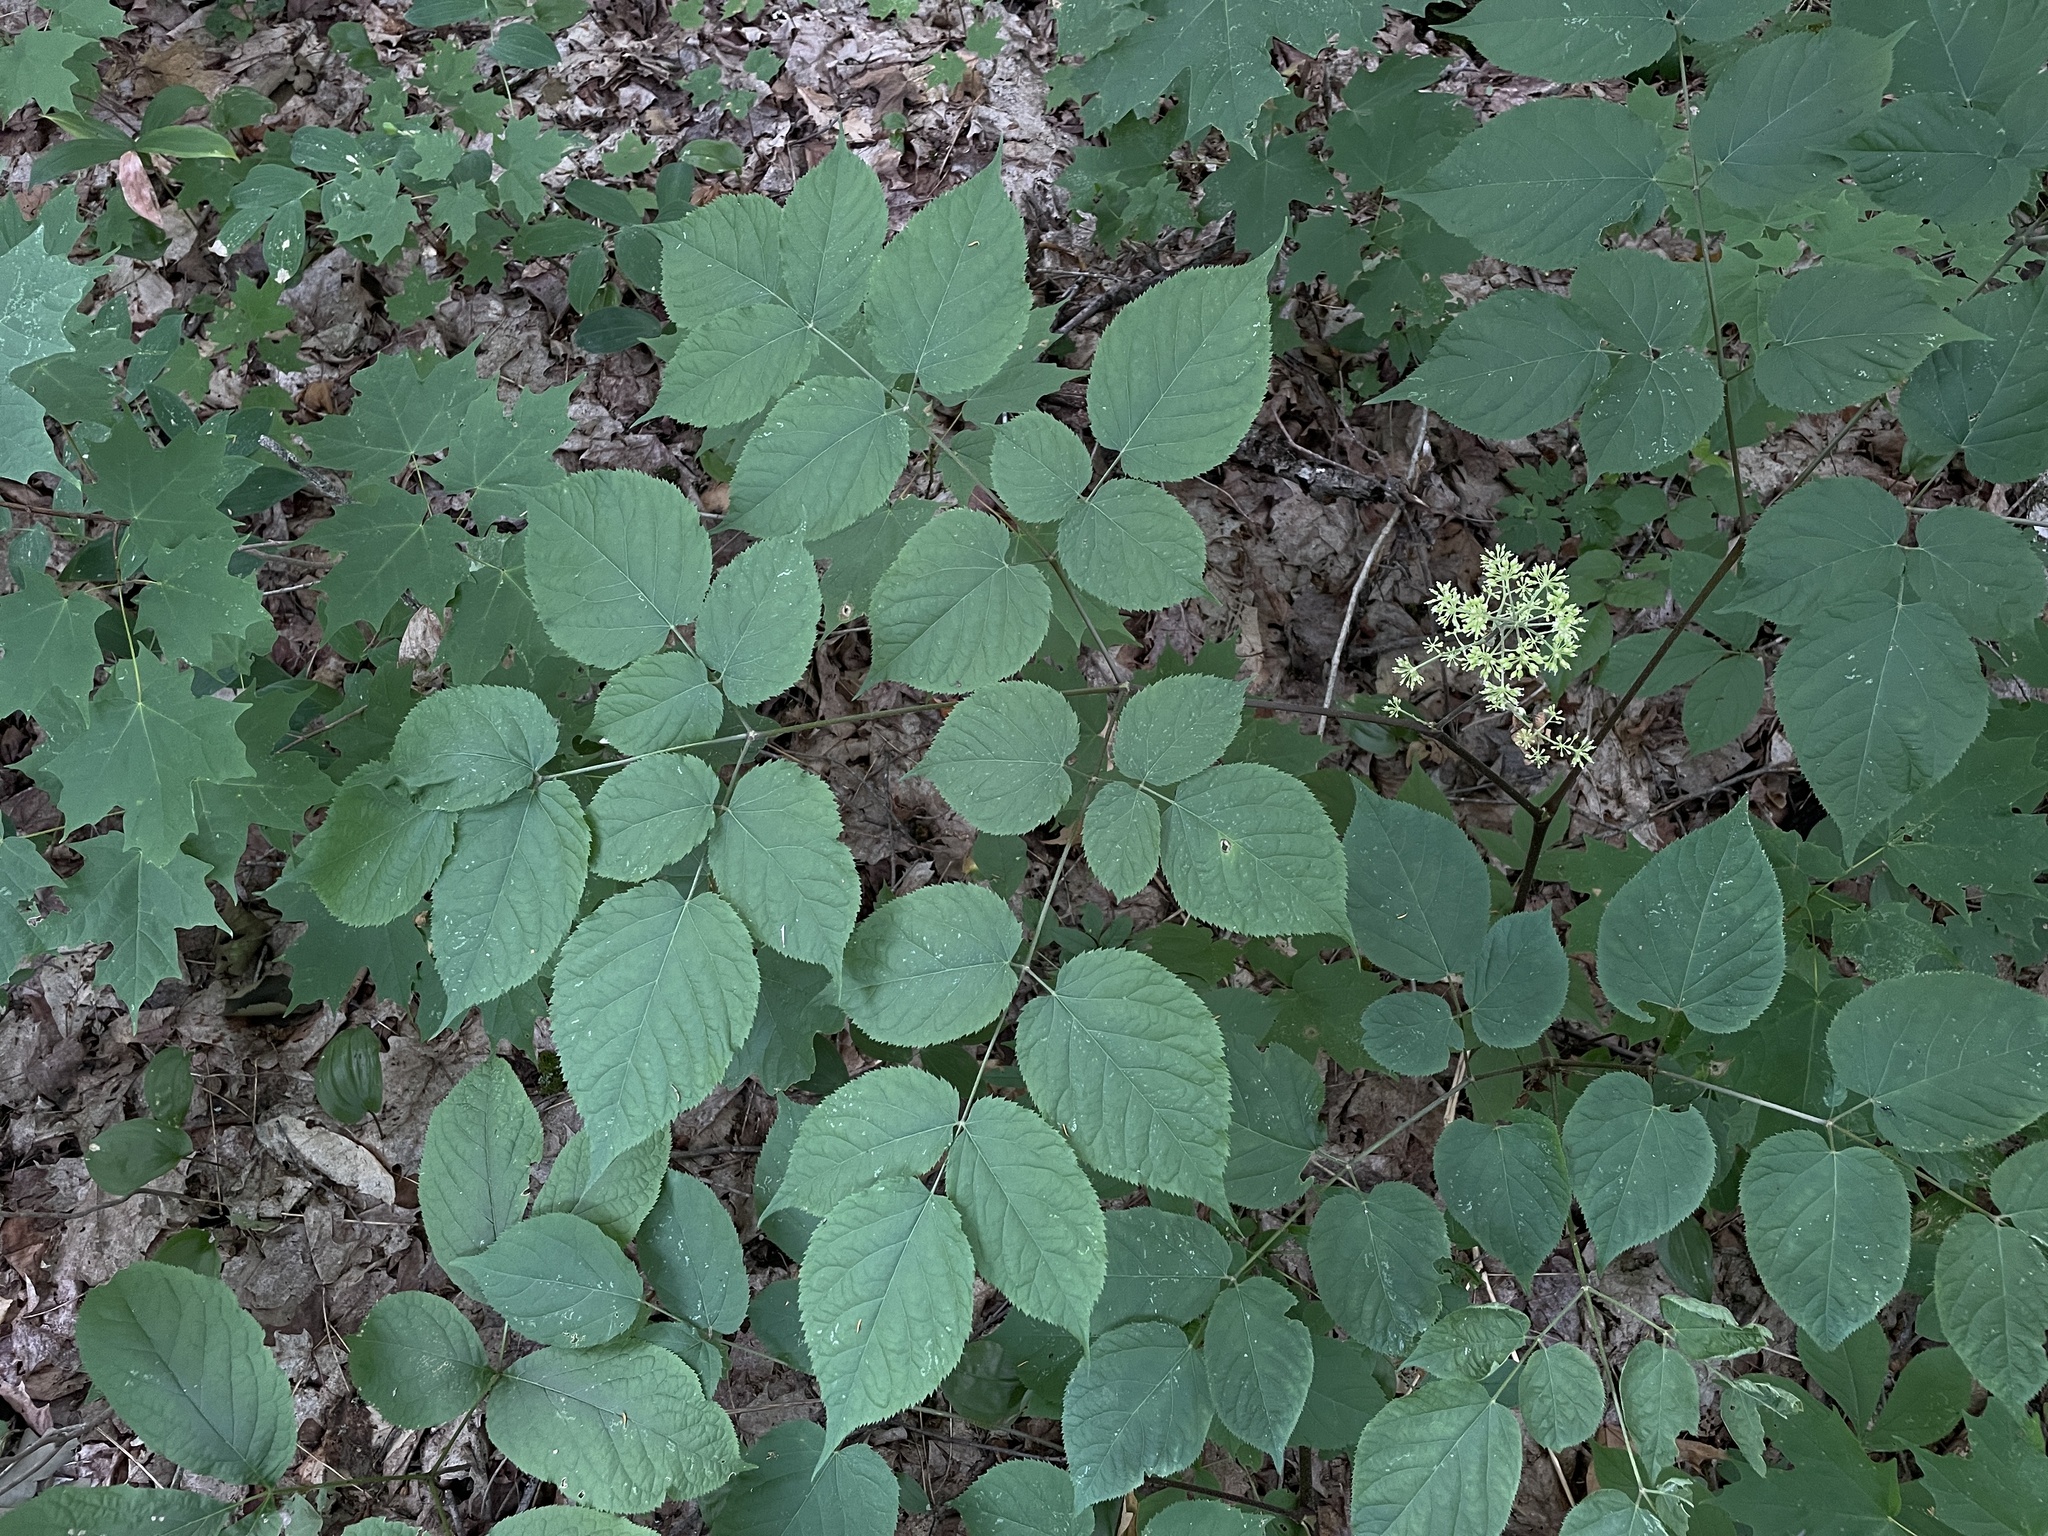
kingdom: Plantae
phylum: Tracheophyta
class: Magnoliopsida
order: Apiales
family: Araliaceae
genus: Aralia
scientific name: Aralia racemosa
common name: American-spikenard
